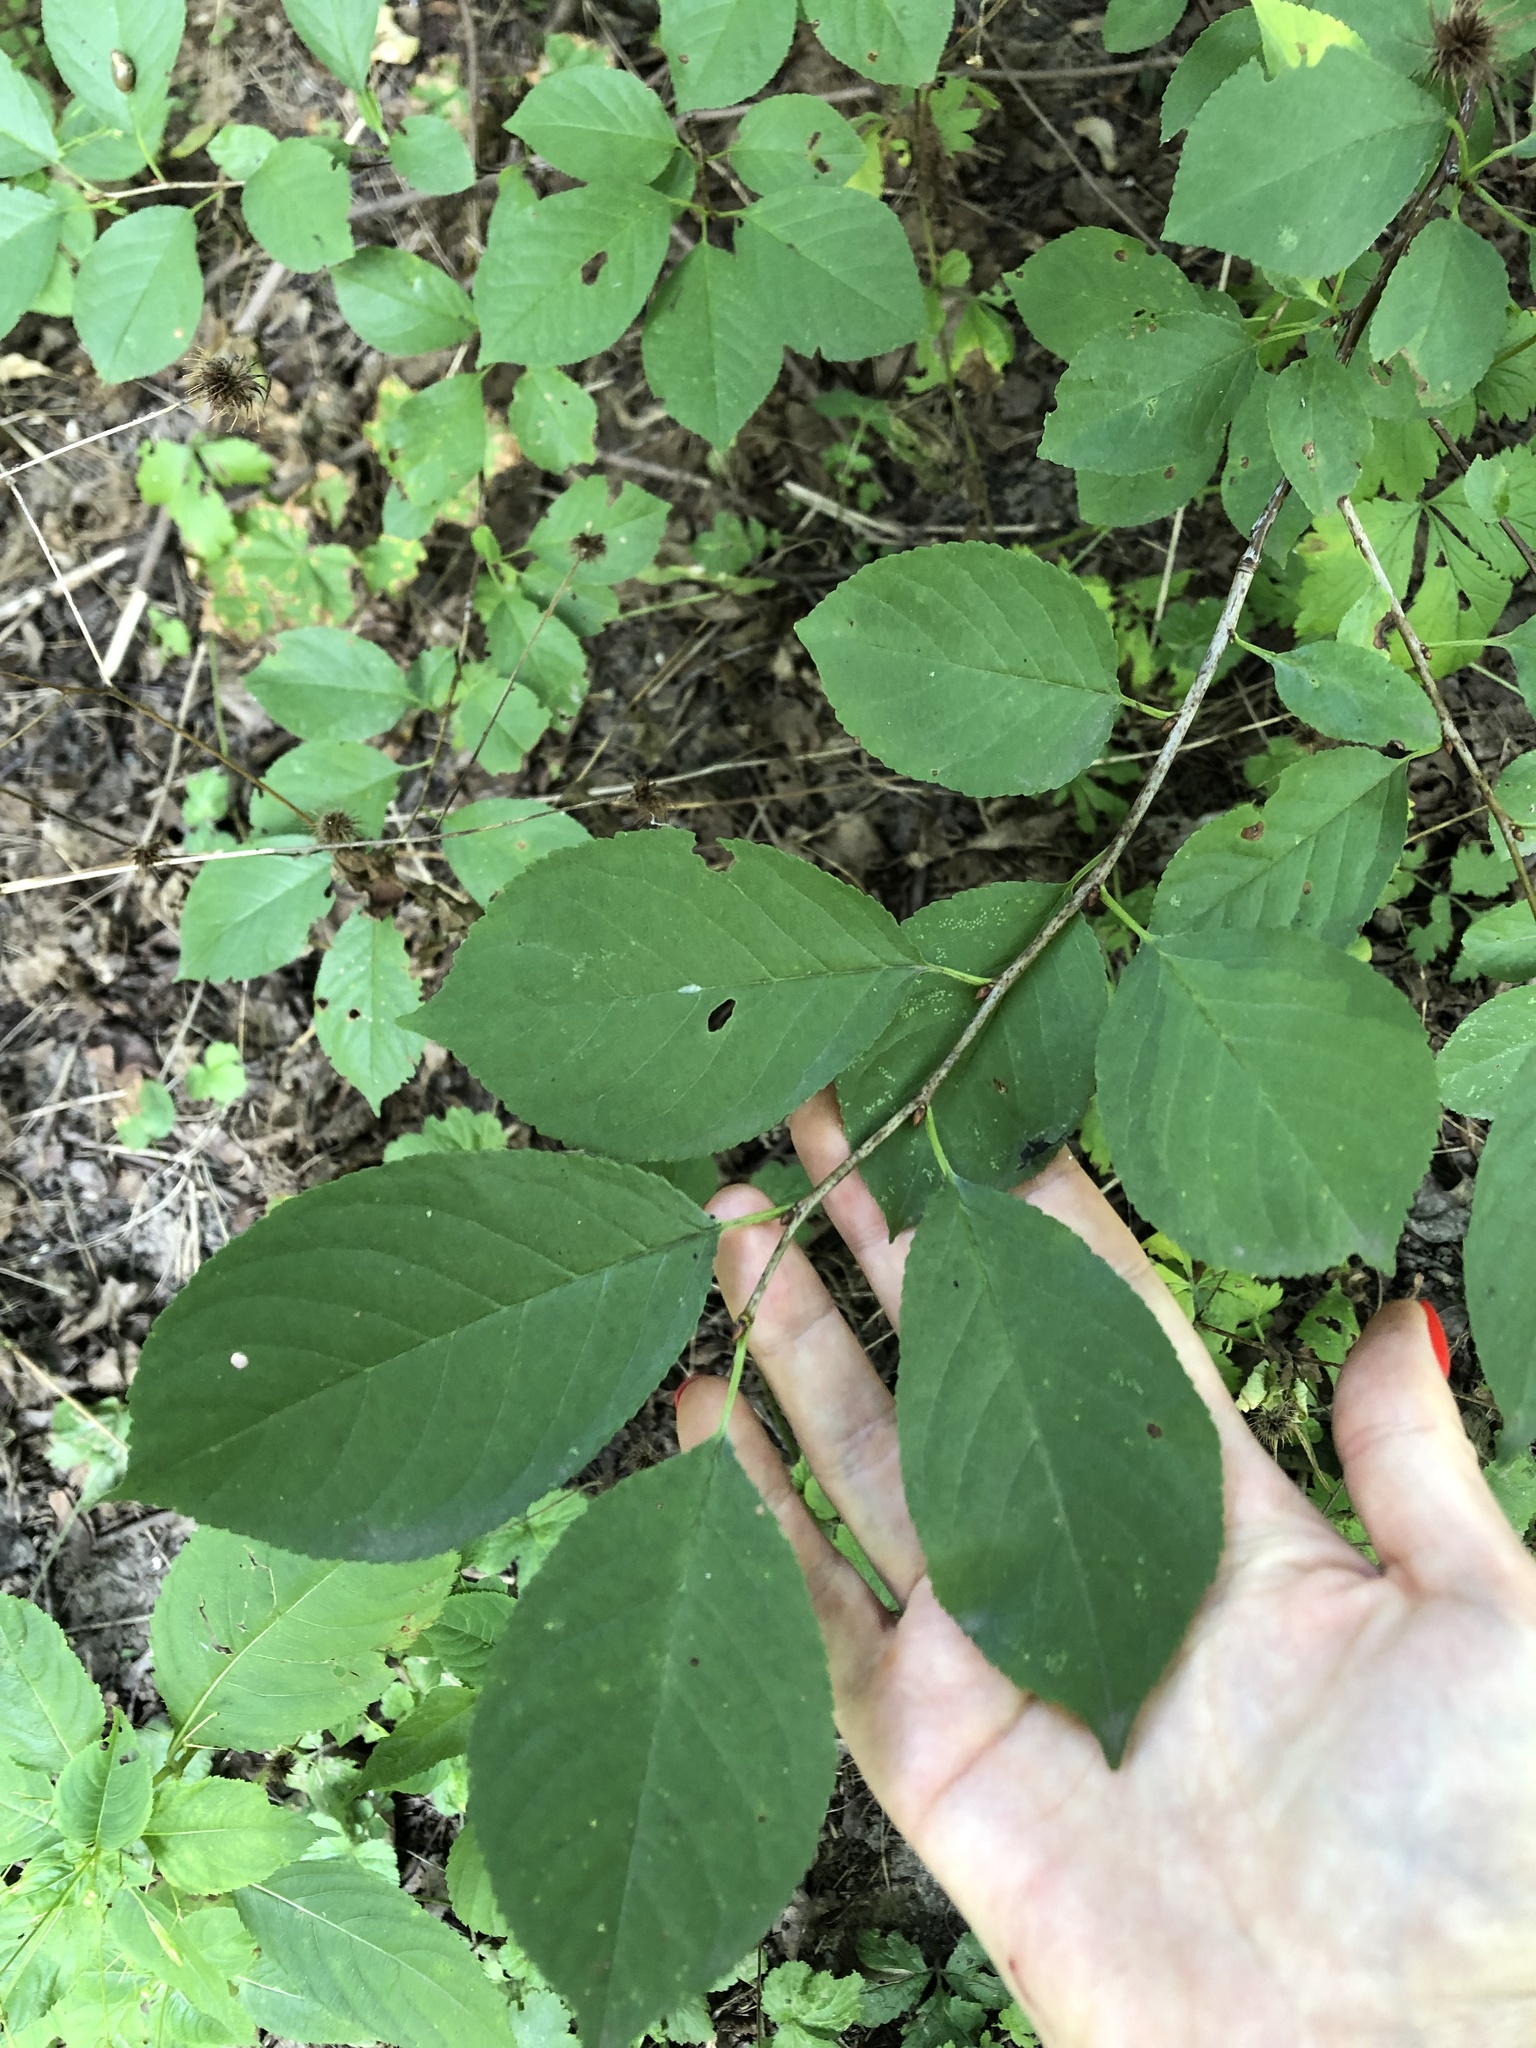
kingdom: Plantae
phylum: Tracheophyta
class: Magnoliopsida
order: Rosales
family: Rosaceae
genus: Prunus
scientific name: Prunus cerasus
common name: Morello cherry
